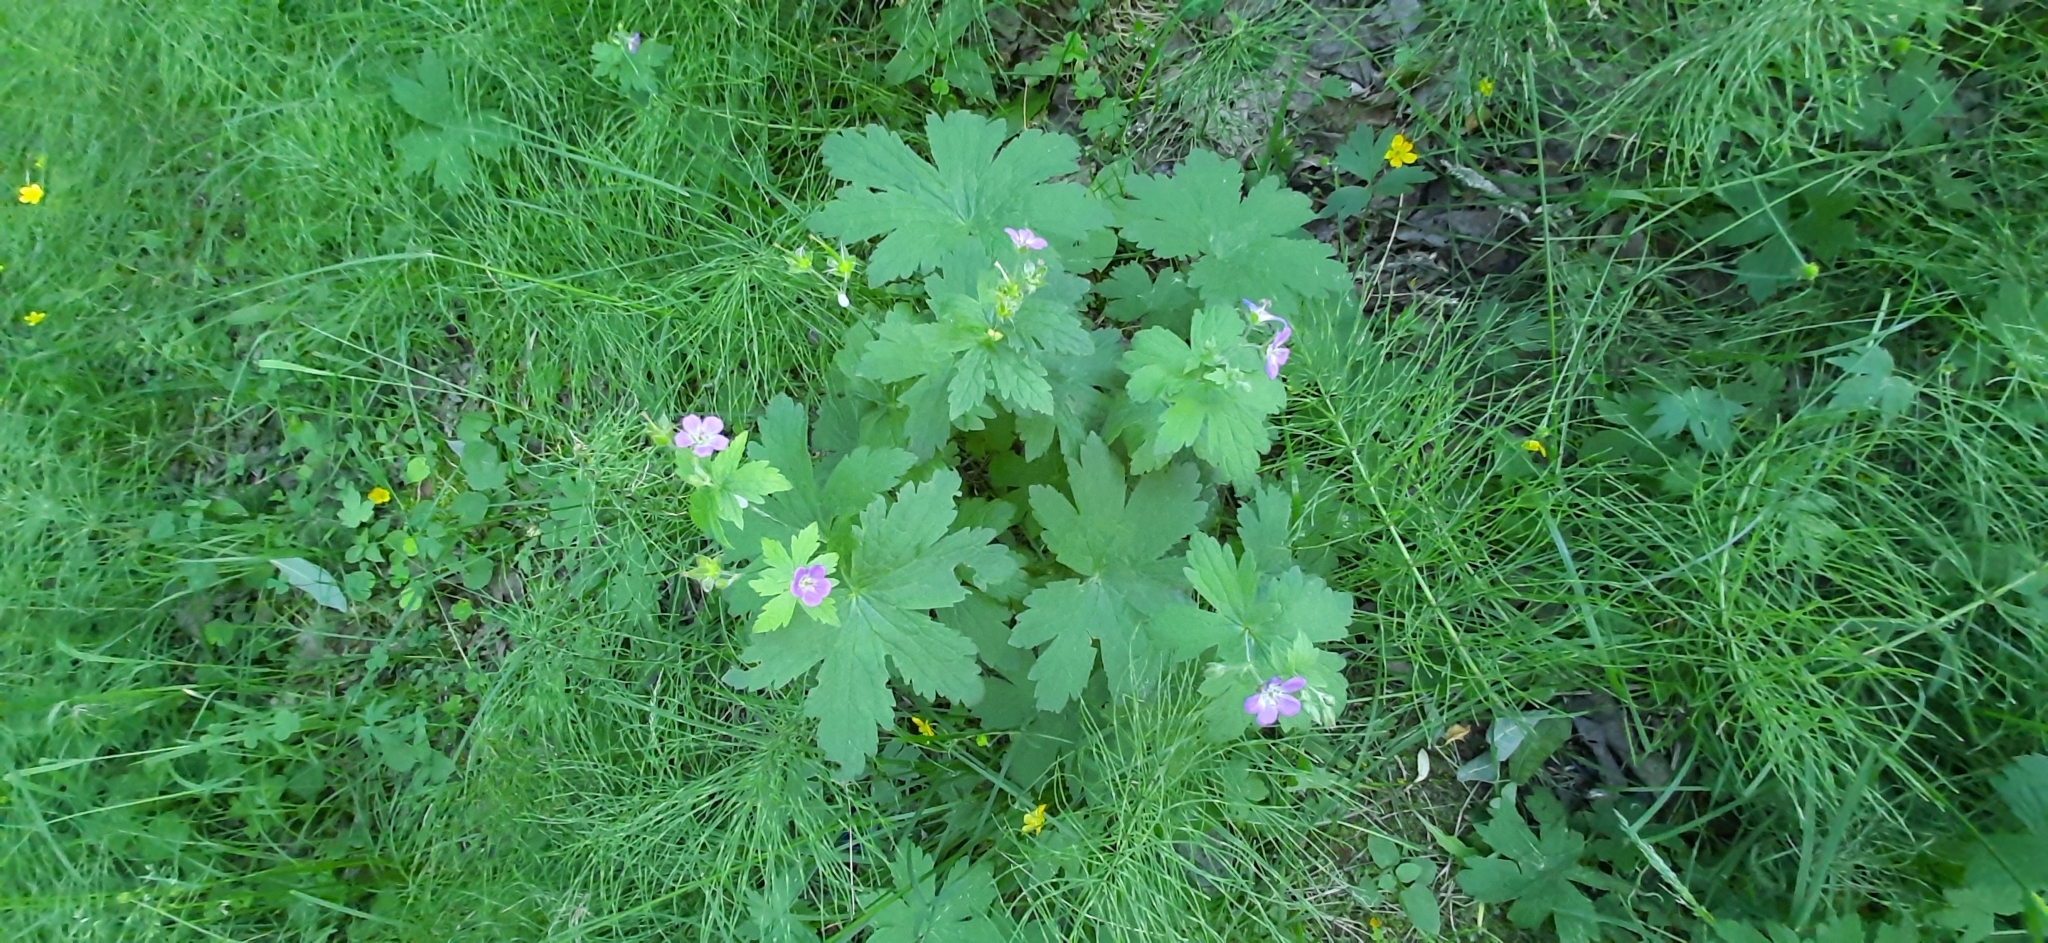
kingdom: Plantae
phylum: Tracheophyta
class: Magnoliopsida
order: Geraniales
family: Geraniaceae
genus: Geranium
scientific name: Geranium sylvaticum
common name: Wood crane's-bill
